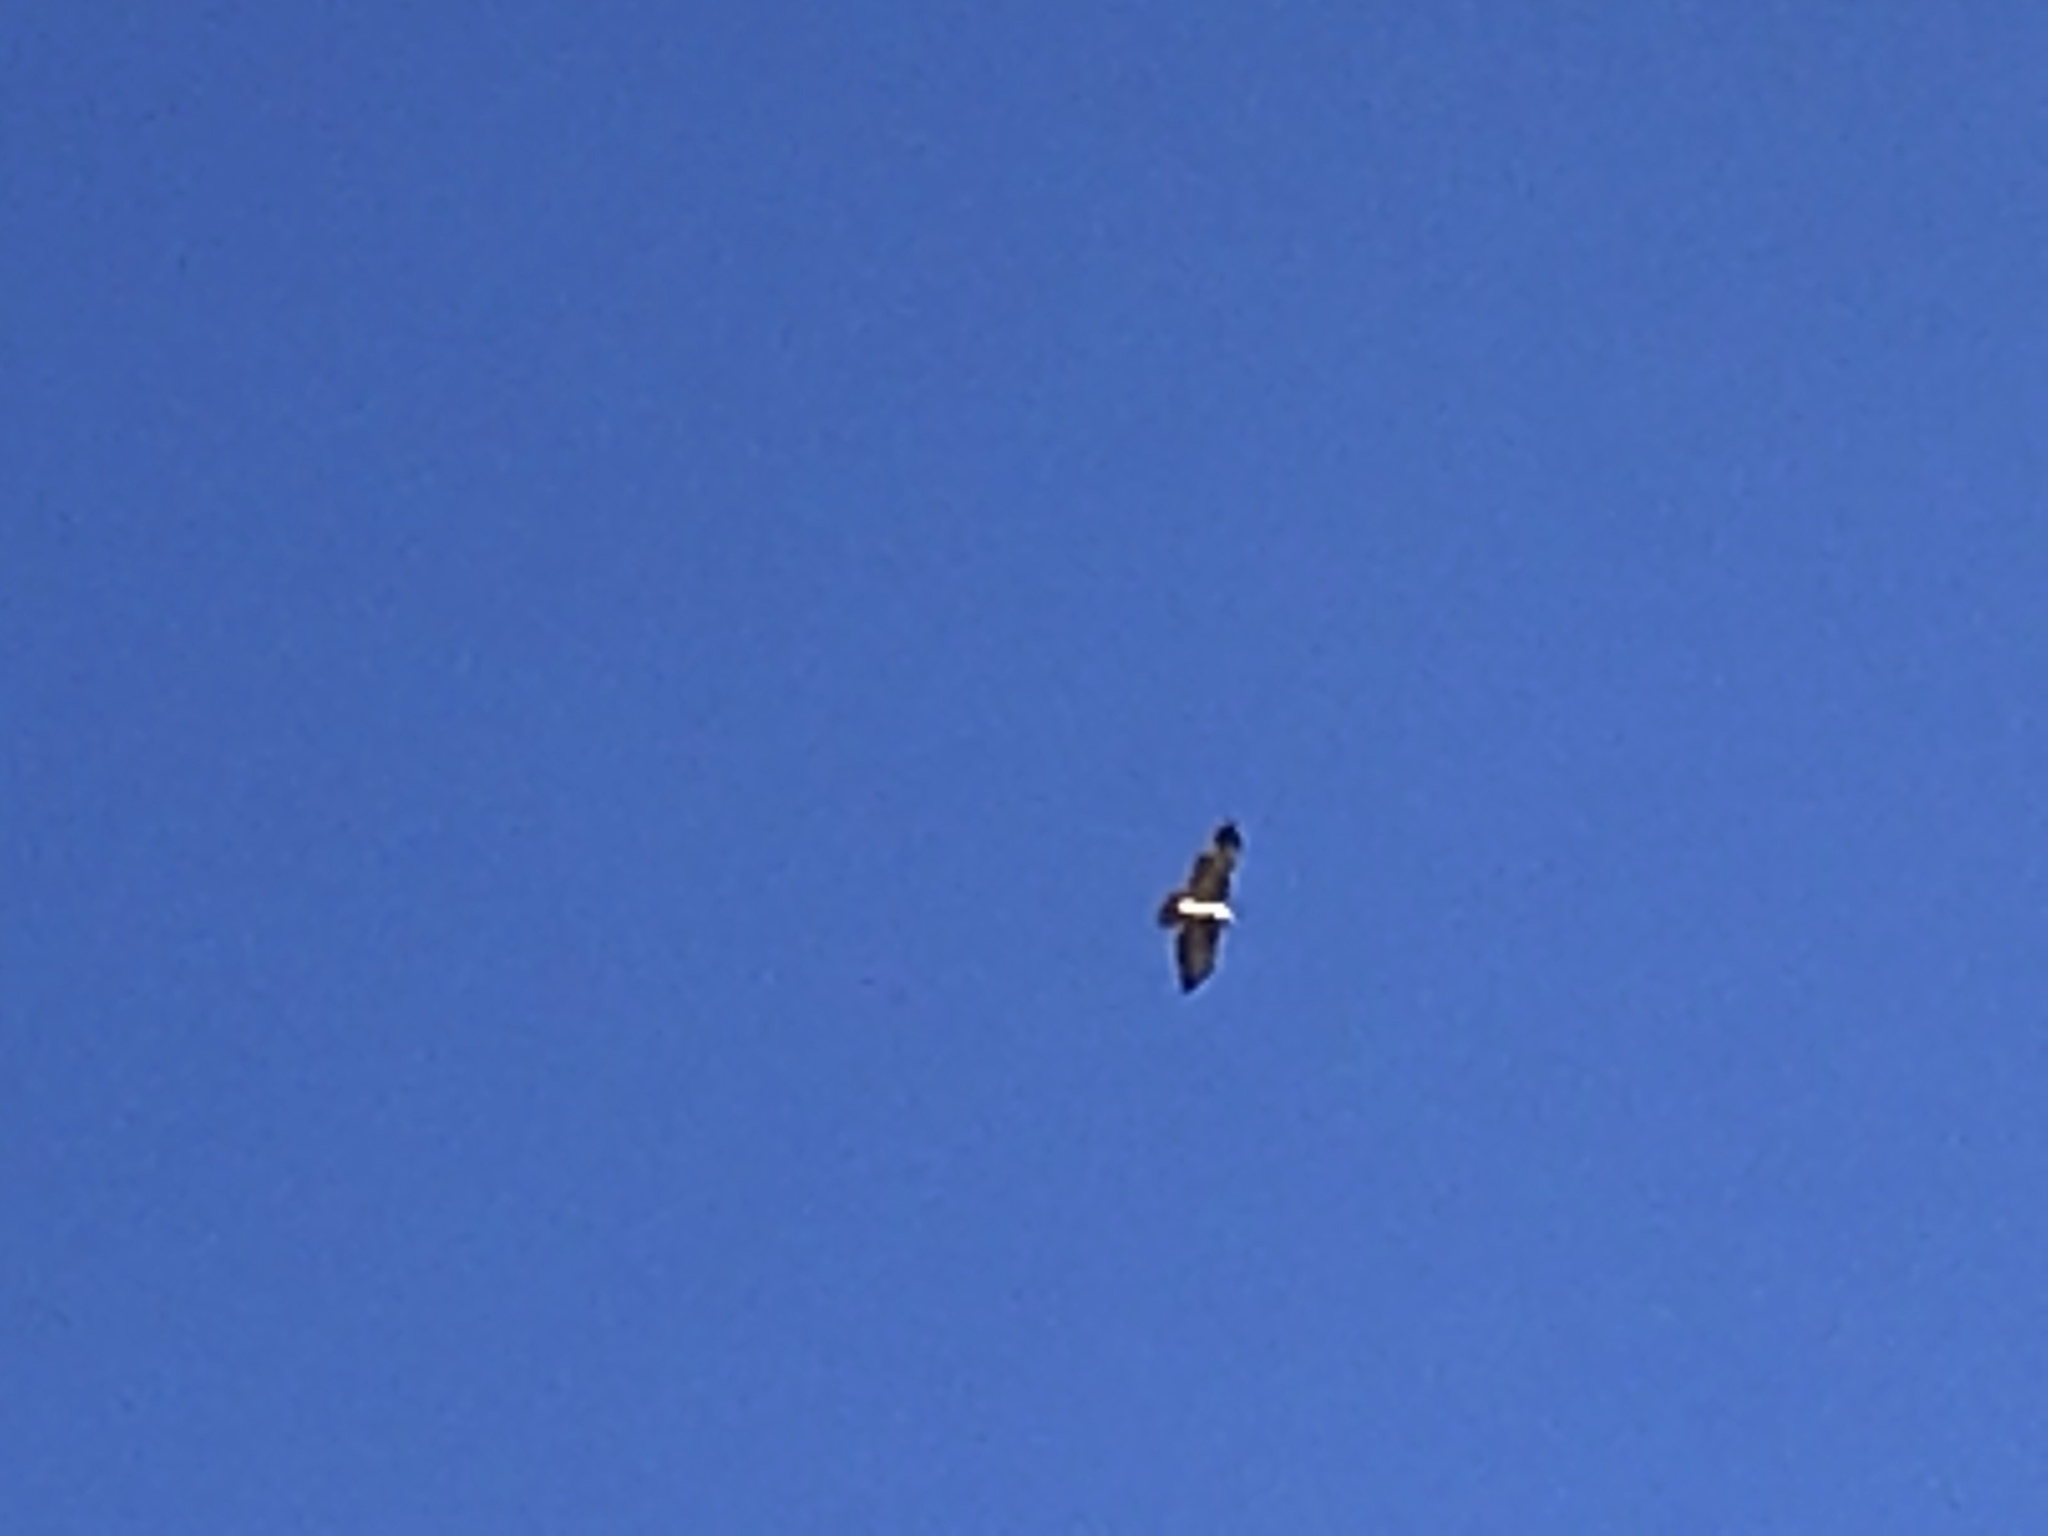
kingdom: Animalia
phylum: Chordata
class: Aves
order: Accipitriformes
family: Accipitridae
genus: Buteo
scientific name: Buteo jamaicensis
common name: Red-tailed hawk
